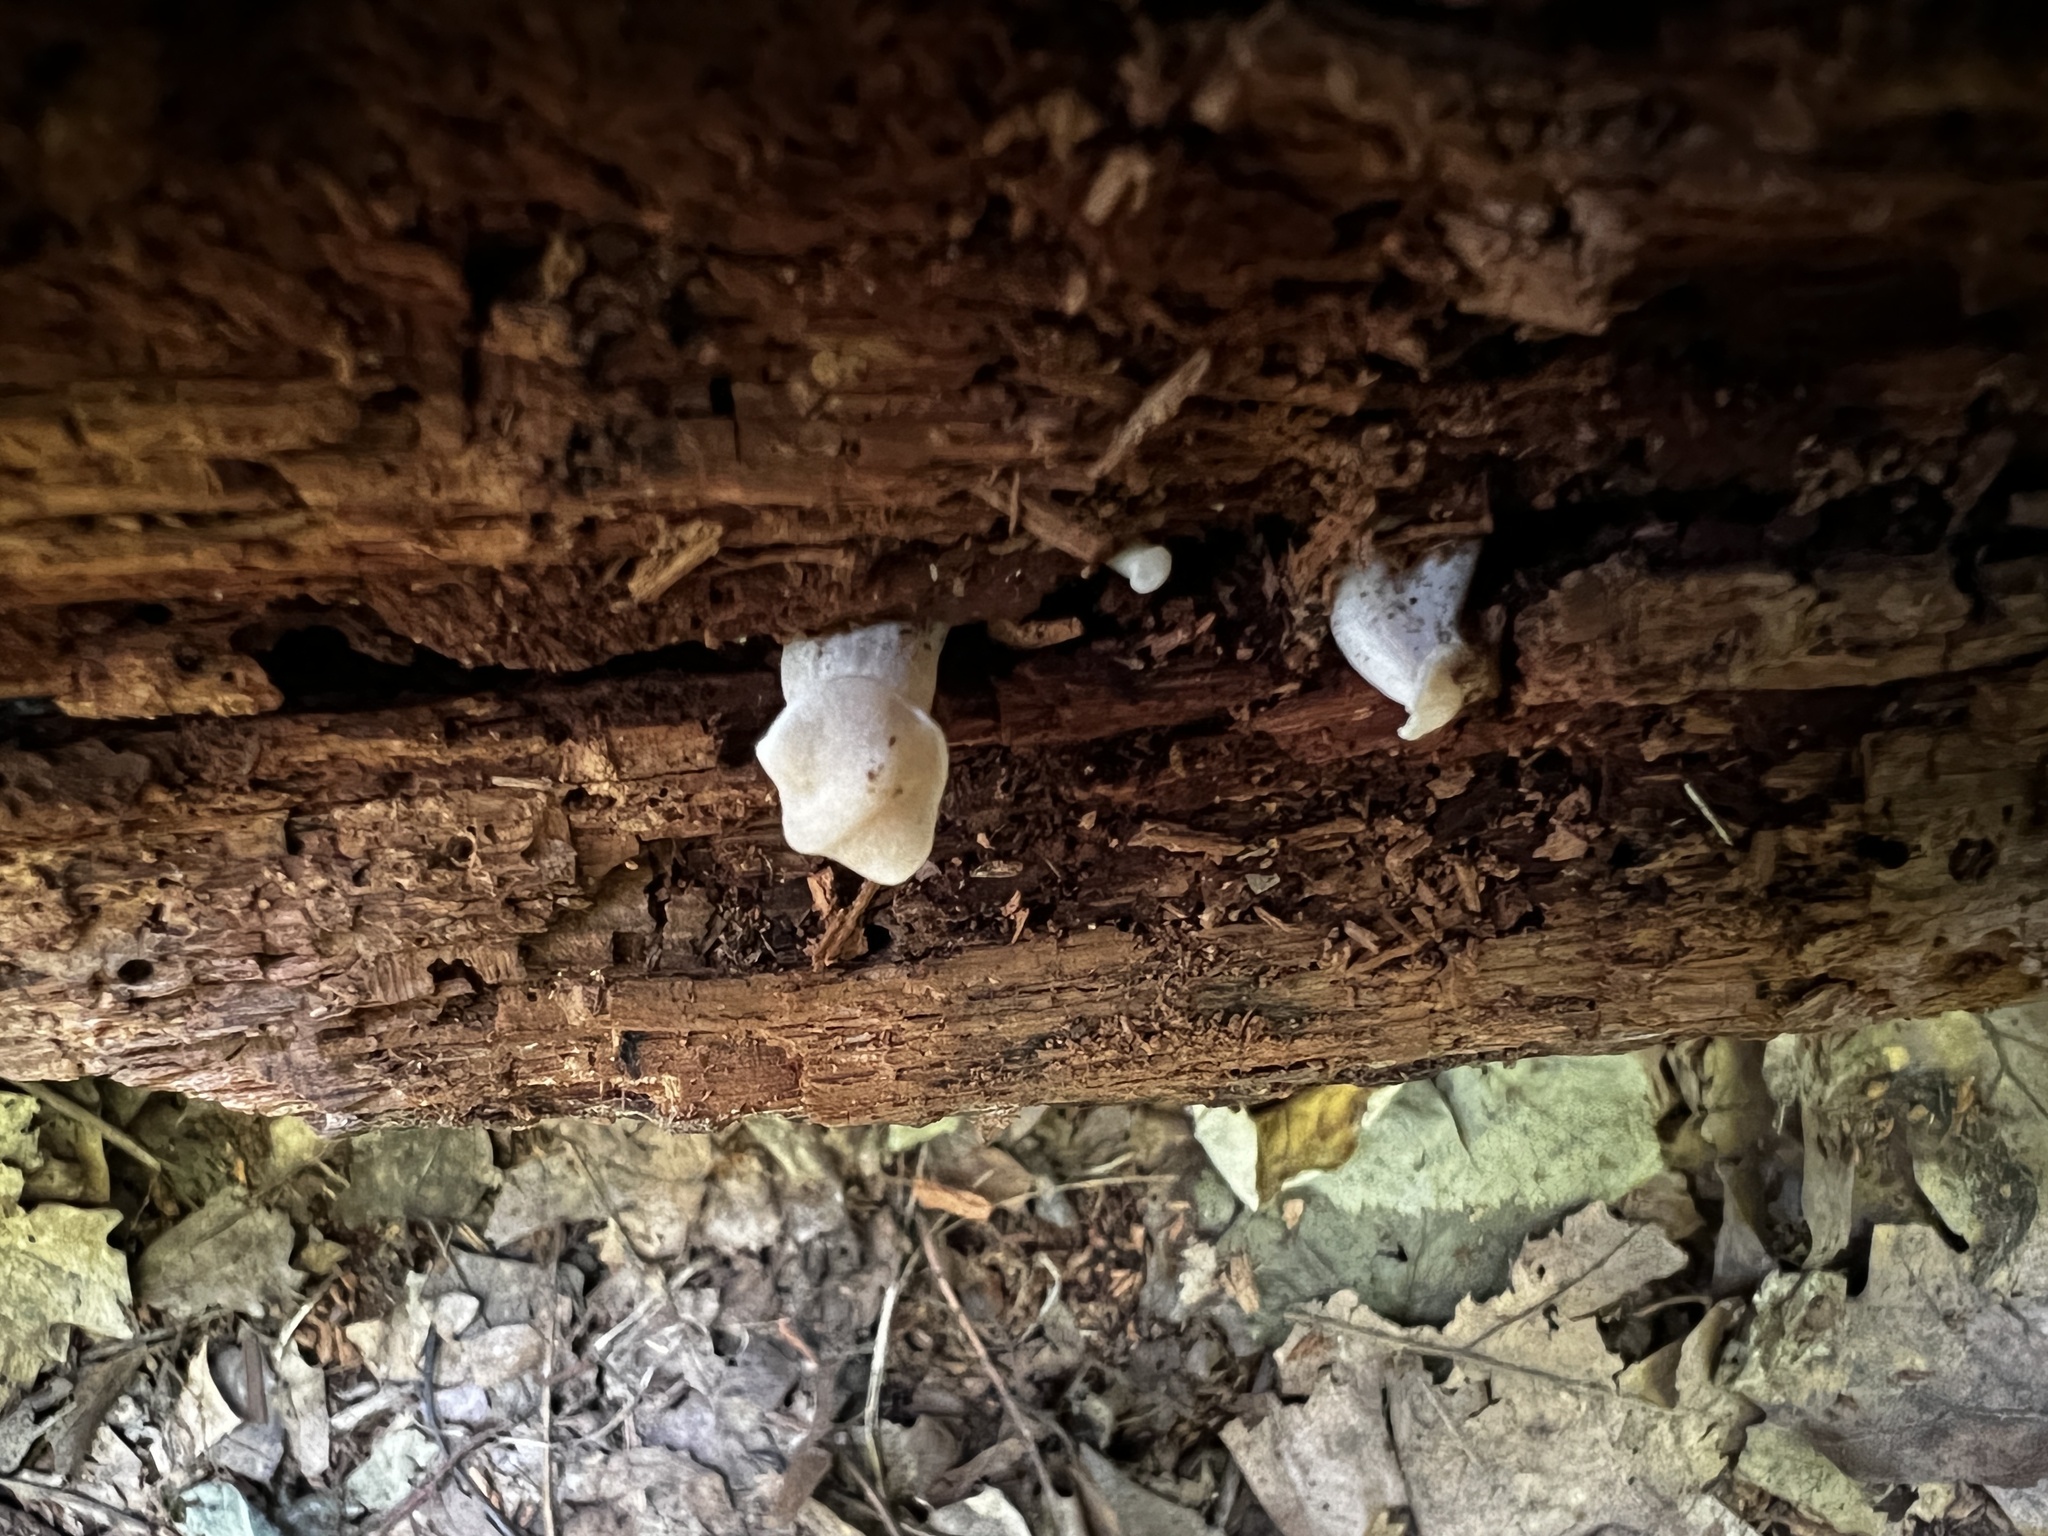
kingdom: Fungi
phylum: Basidiomycota
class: Agaricomycetes
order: Agaricales
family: Entolomataceae
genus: Entoloma
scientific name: Entoloma strictius
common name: Straight-stalked entoloma
